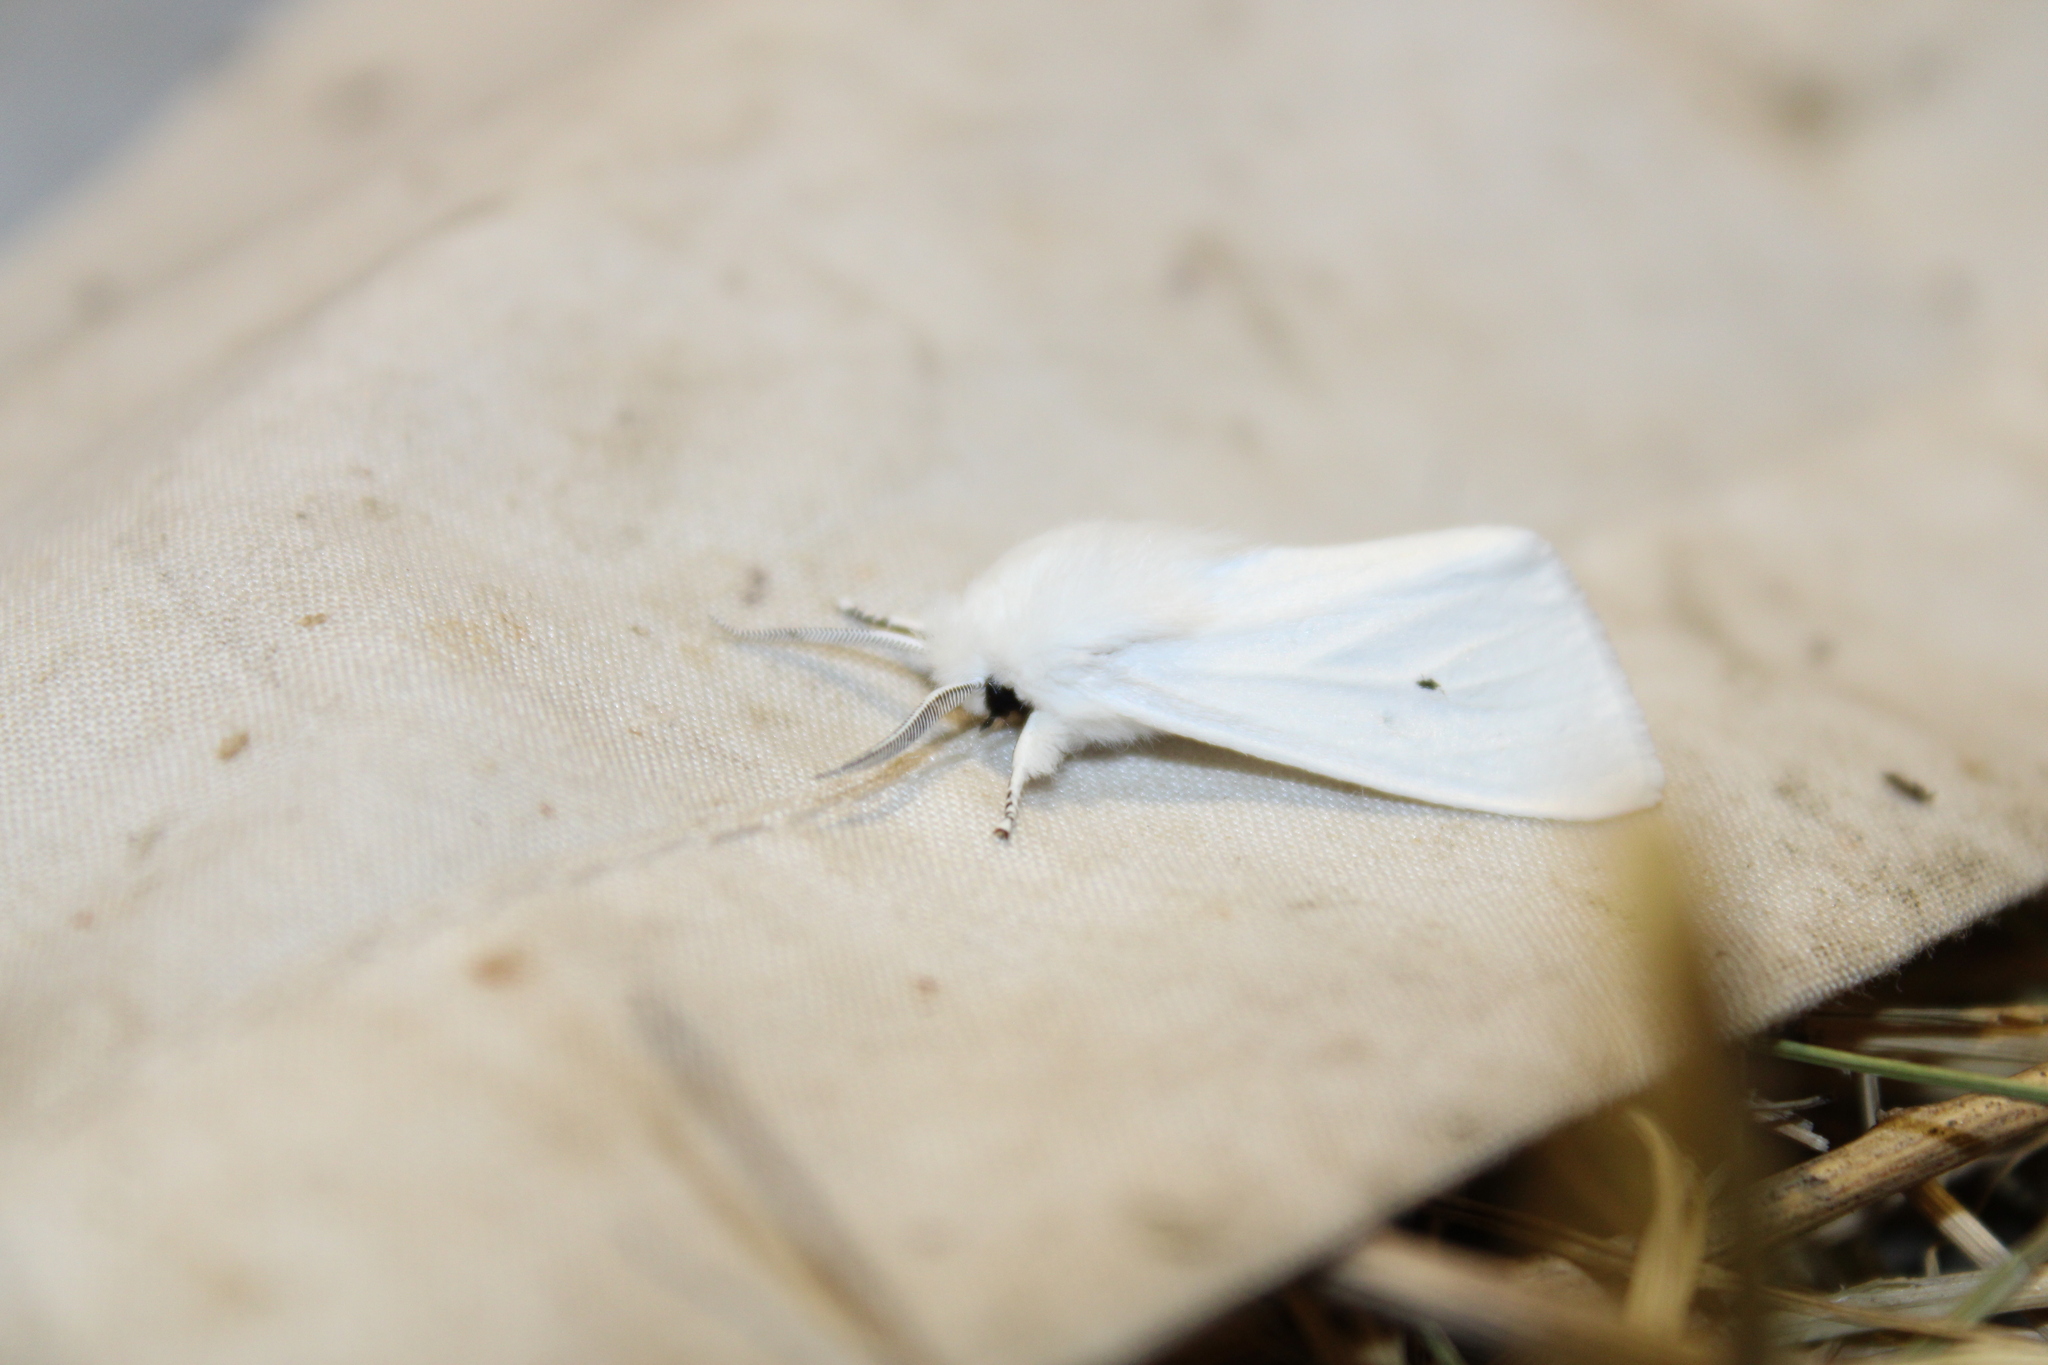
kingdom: Animalia
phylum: Arthropoda
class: Insecta
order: Lepidoptera
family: Erebidae
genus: Spilosoma
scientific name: Spilosoma virginica
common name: Virginia tiger moth
